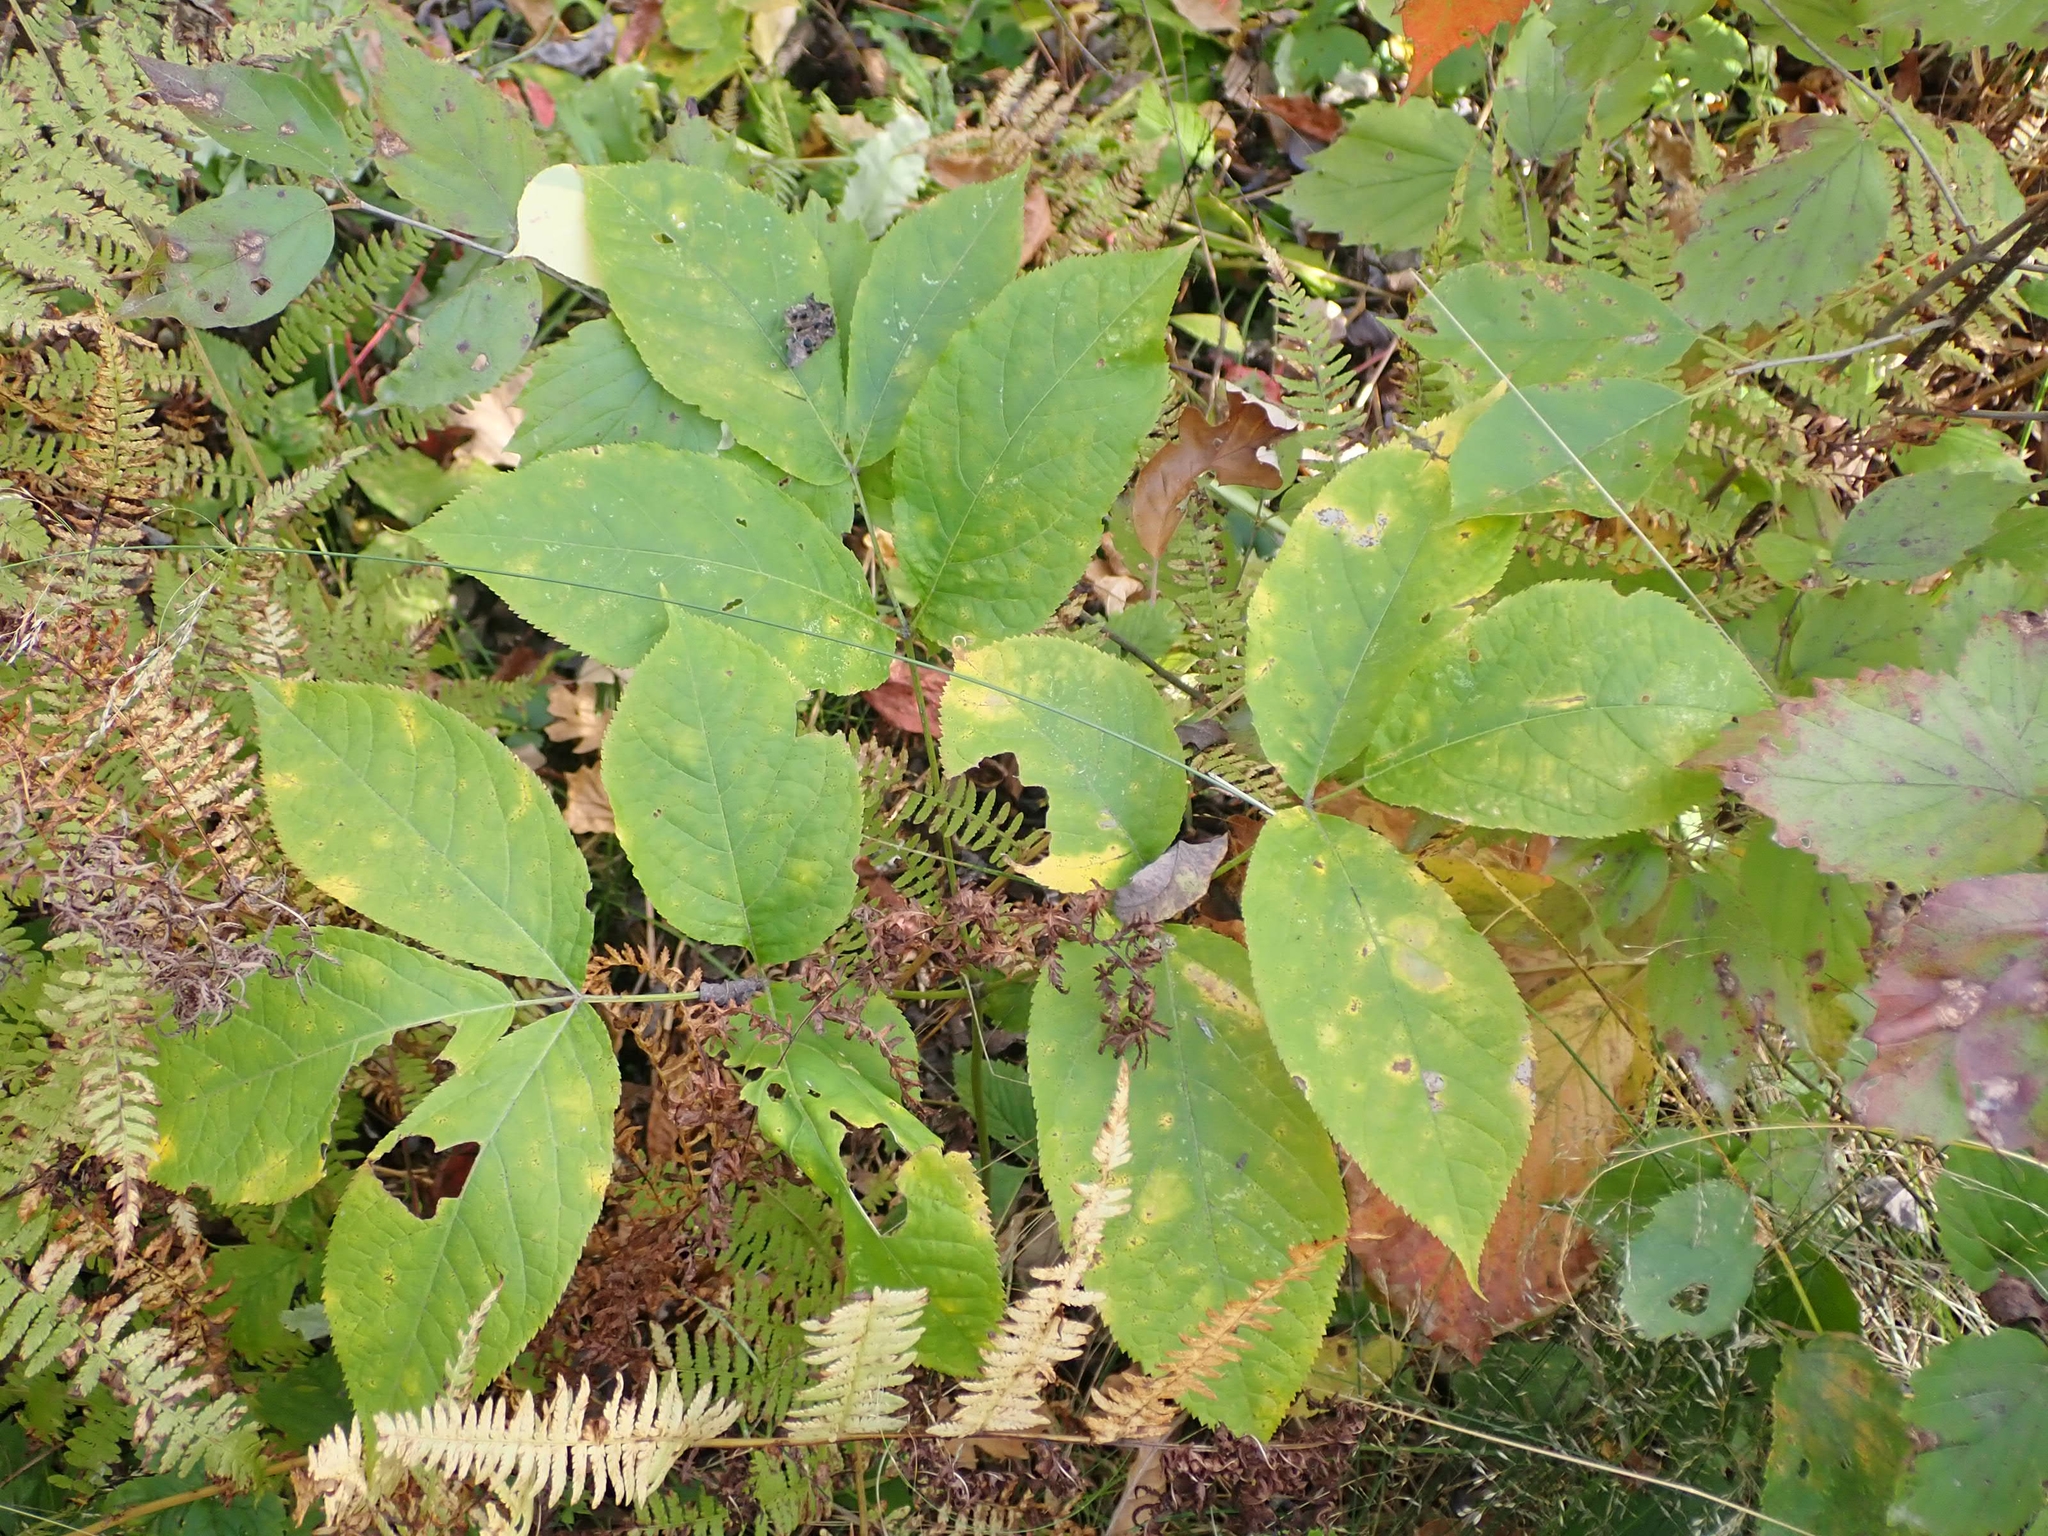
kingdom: Plantae
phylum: Tracheophyta
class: Magnoliopsida
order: Apiales
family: Araliaceae
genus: Aralia
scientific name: Aralia nudicaulis
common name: Wild sarsaparilla
